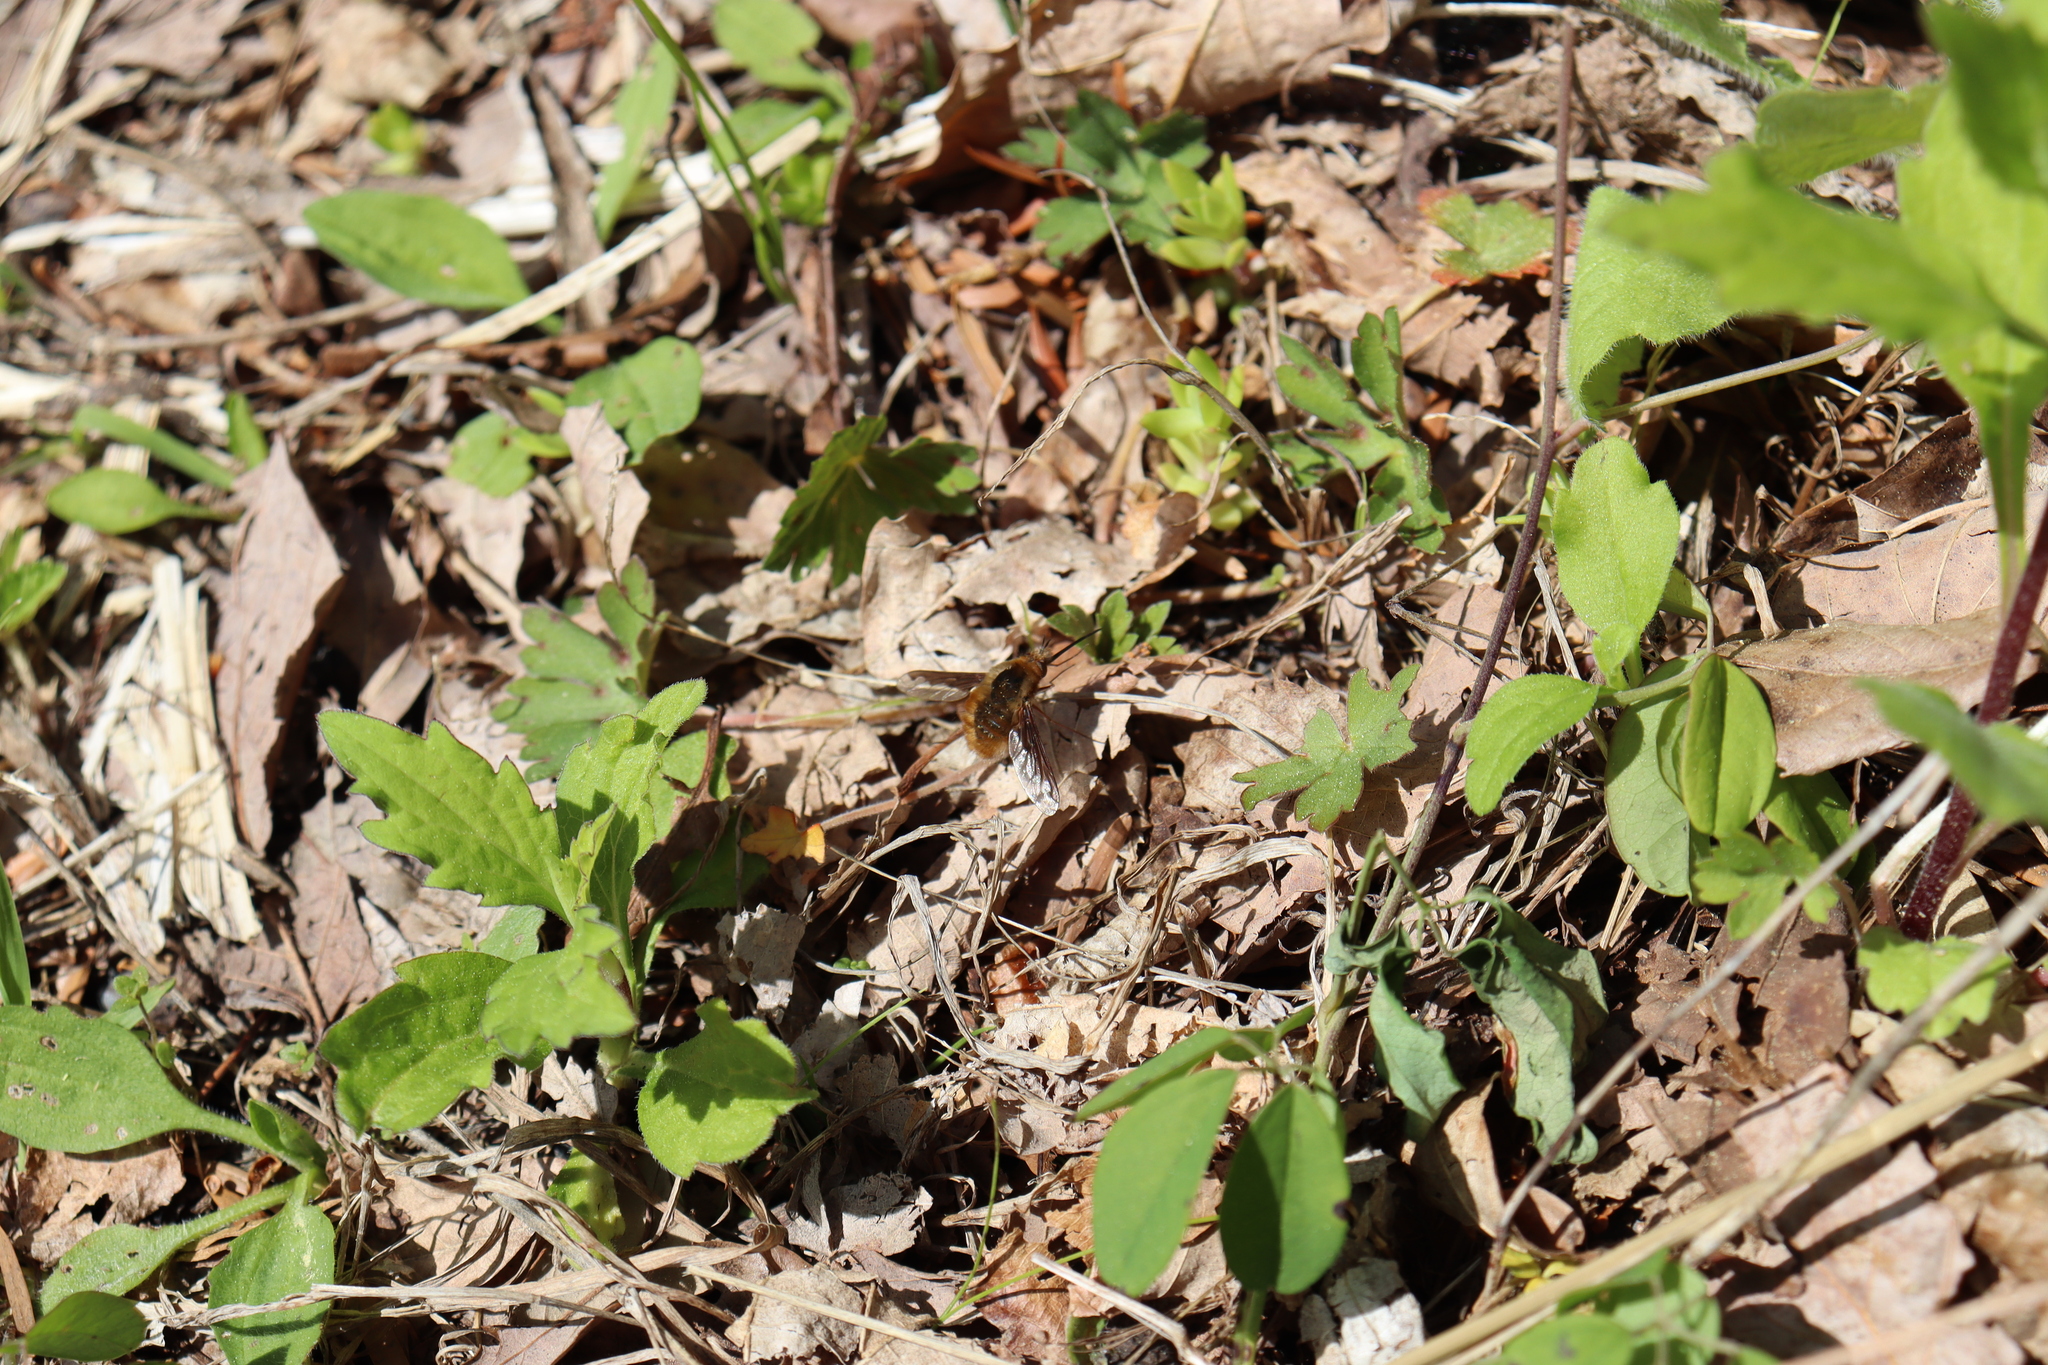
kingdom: Animalia
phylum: Arthropoda
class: Insecta
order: Diptera
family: Bombyliidae
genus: Bombylius
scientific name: Bombylius major
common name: Bee fly
